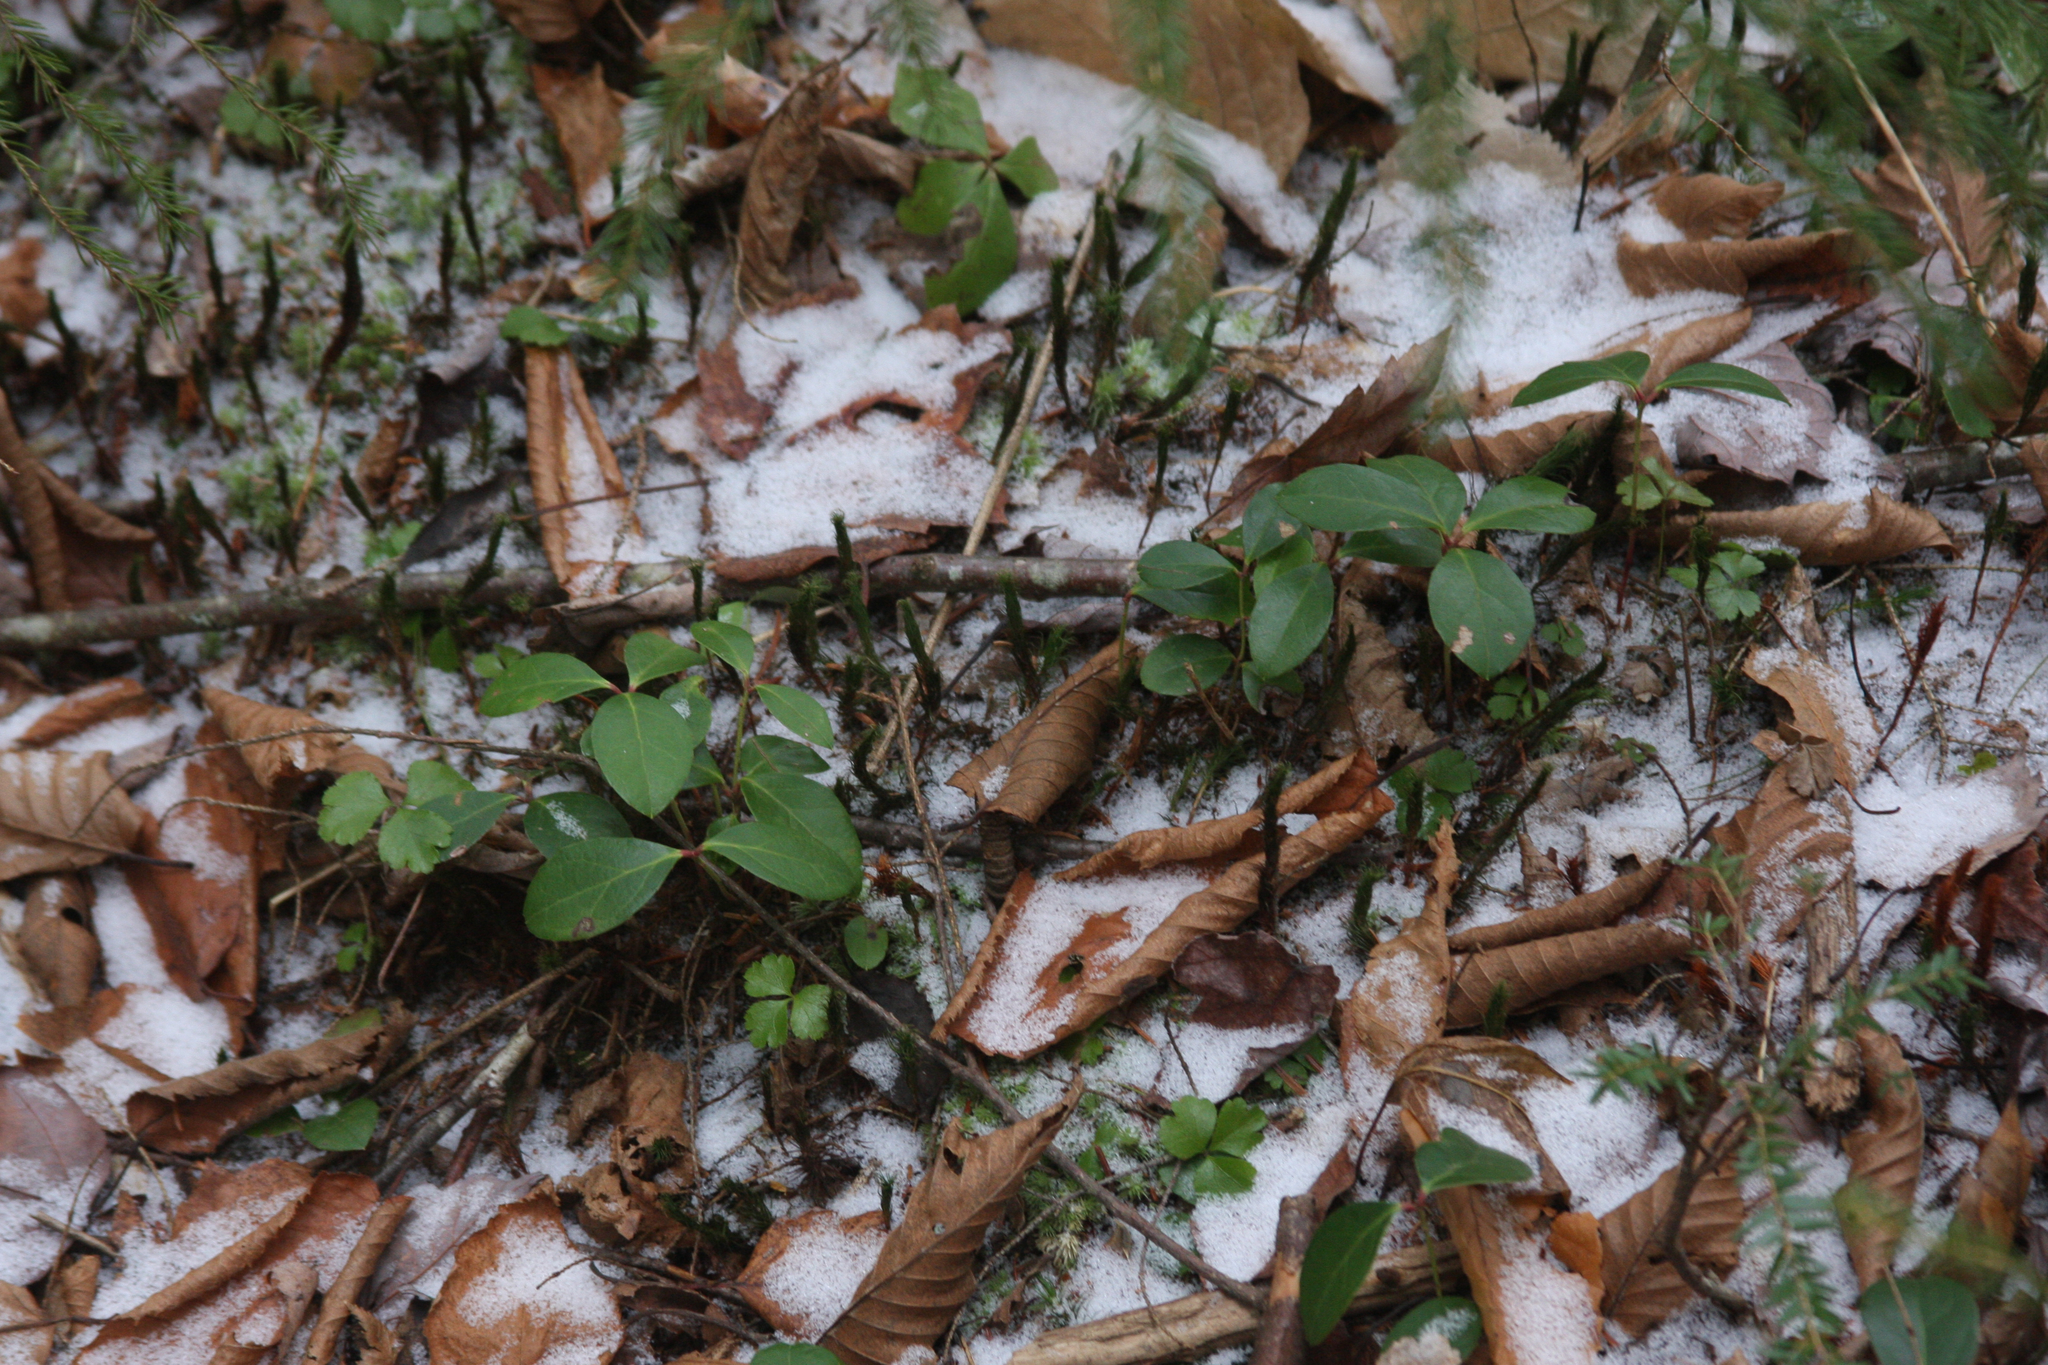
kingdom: Plantae
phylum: Tracheophyta
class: Magnoliopsida
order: Ericales
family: Ericaceae
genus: Gaultheria
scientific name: Gaultheria procumbens
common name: Checkerberry
